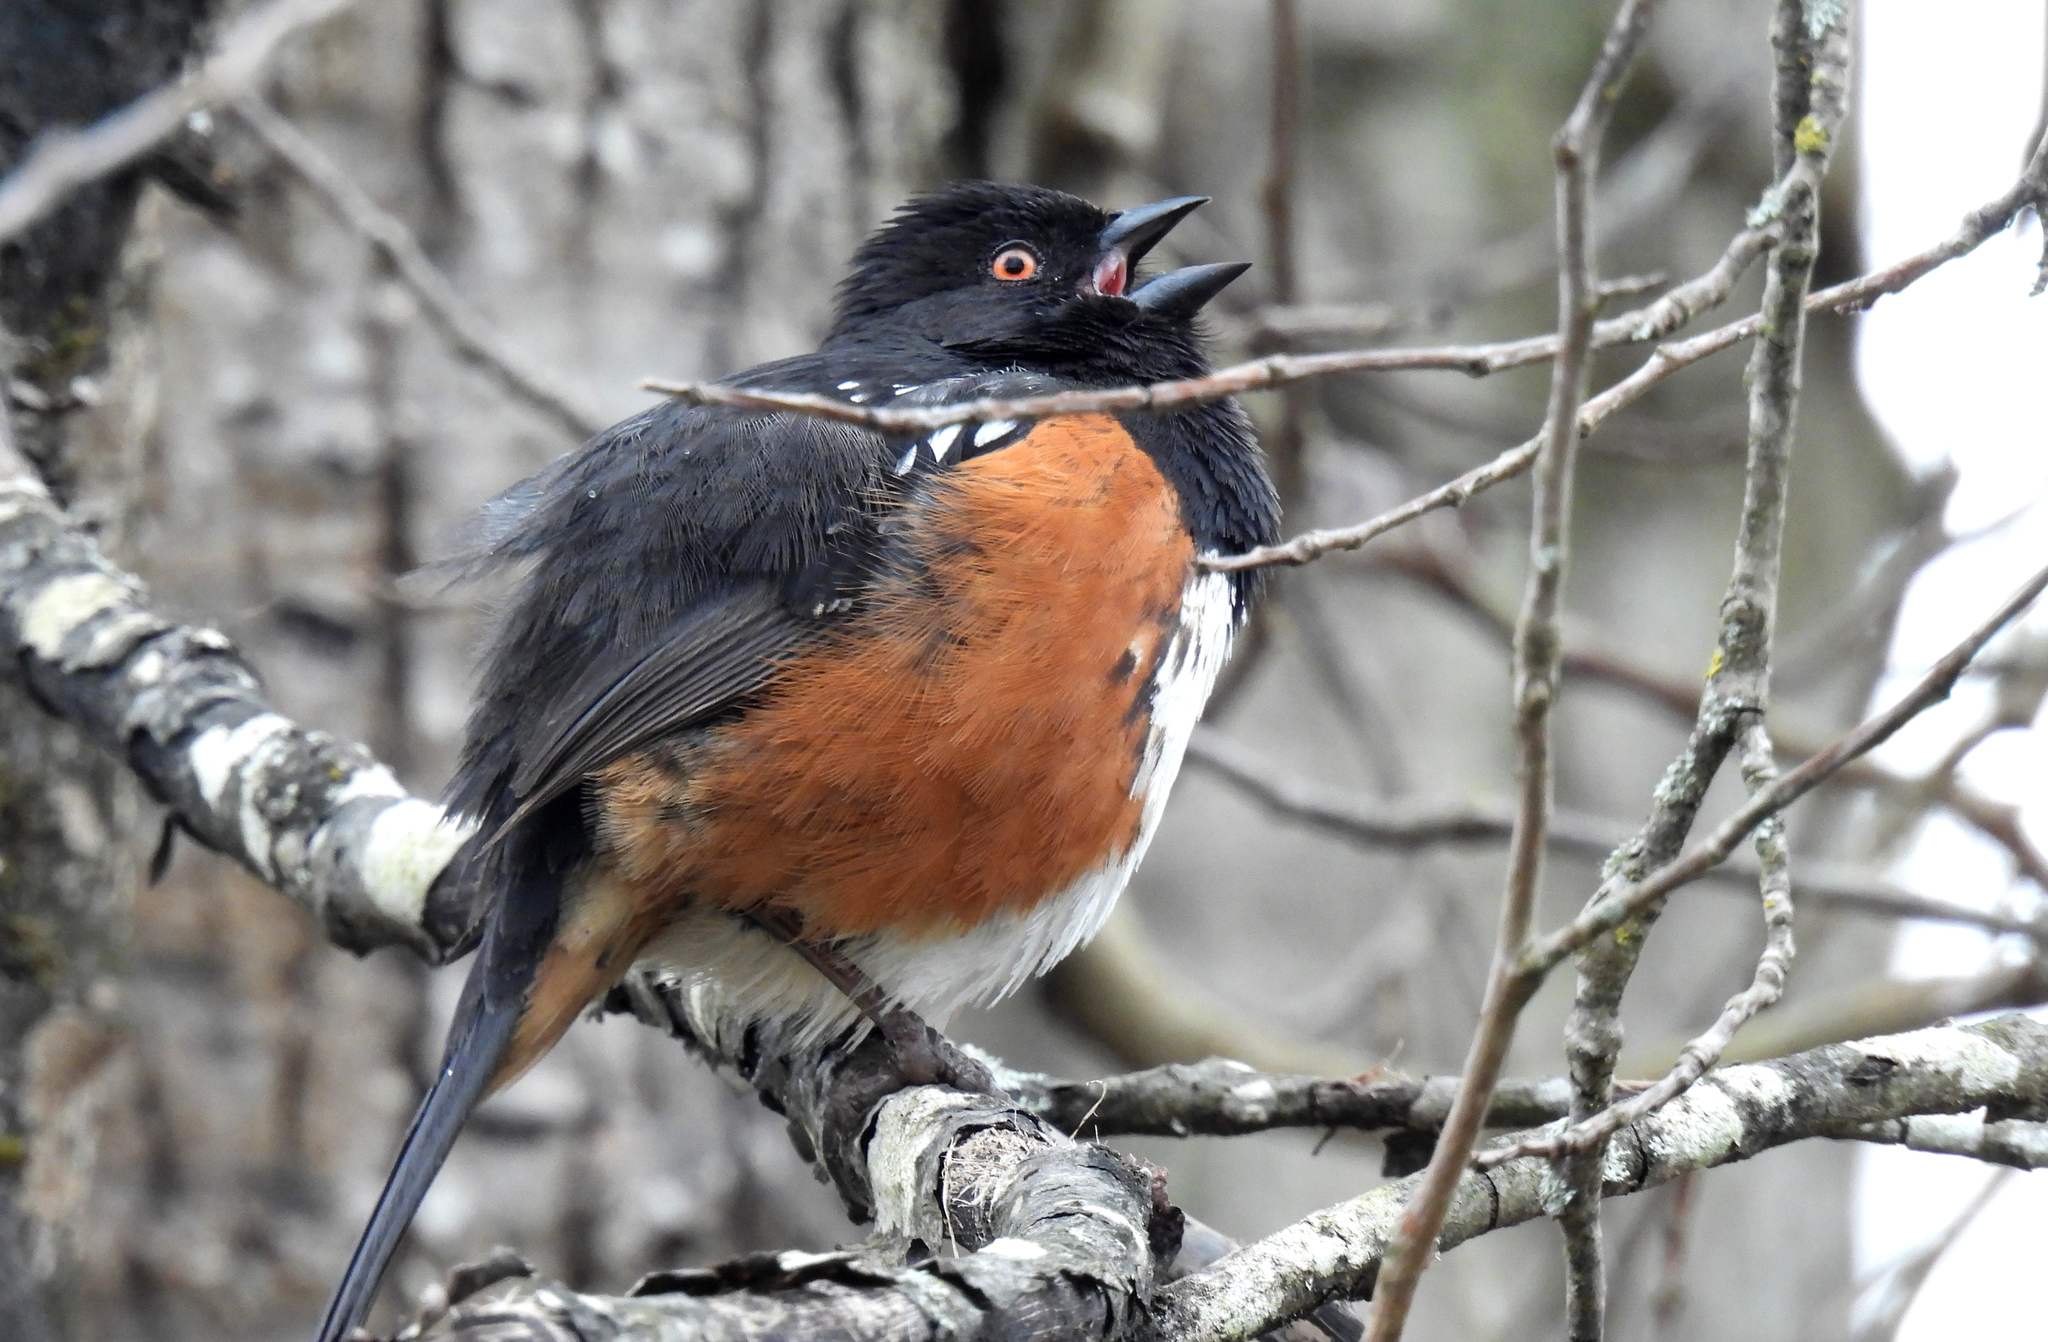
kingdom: Animalia
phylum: Chordata
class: Aves
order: Passeriformes
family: Passerellidae
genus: Pipilo
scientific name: Pipilo maculatus
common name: Spotted towhee
